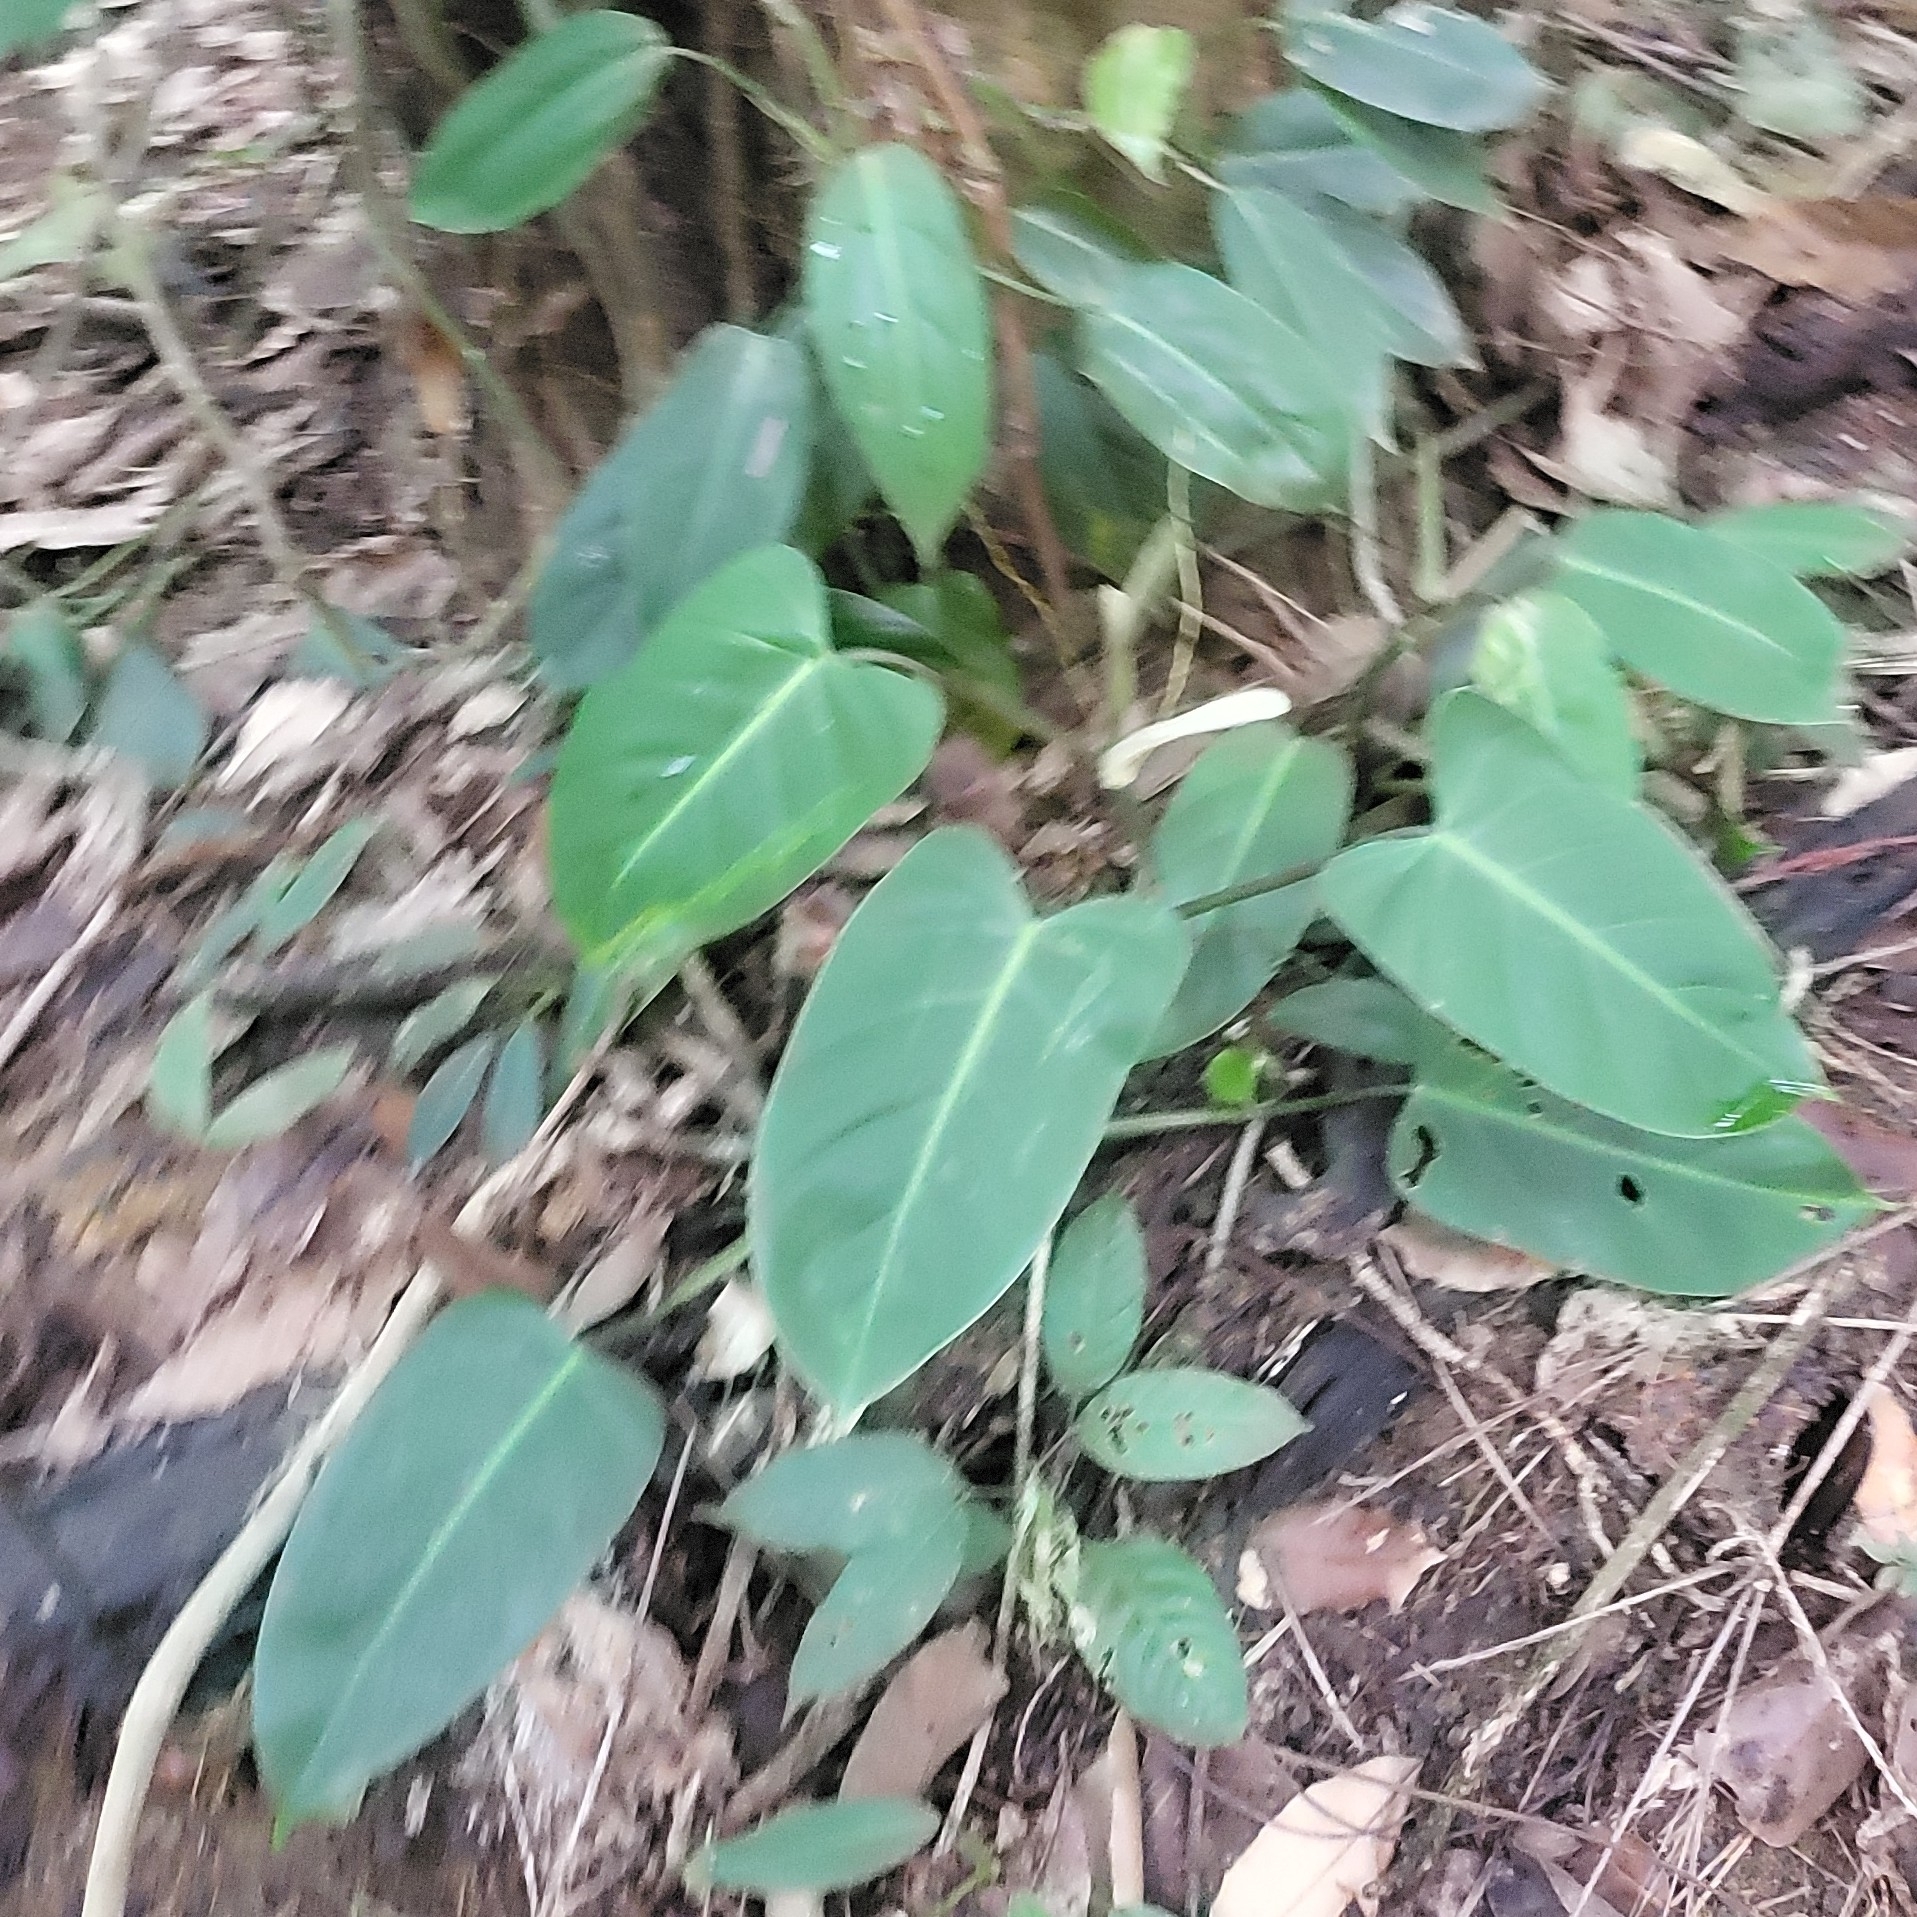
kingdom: Plantae
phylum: Tracheophyta
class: Liliopsida
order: Alismatales
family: Araceae
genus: Philodendron
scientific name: Philodendron hederaceum
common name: Vilevine
